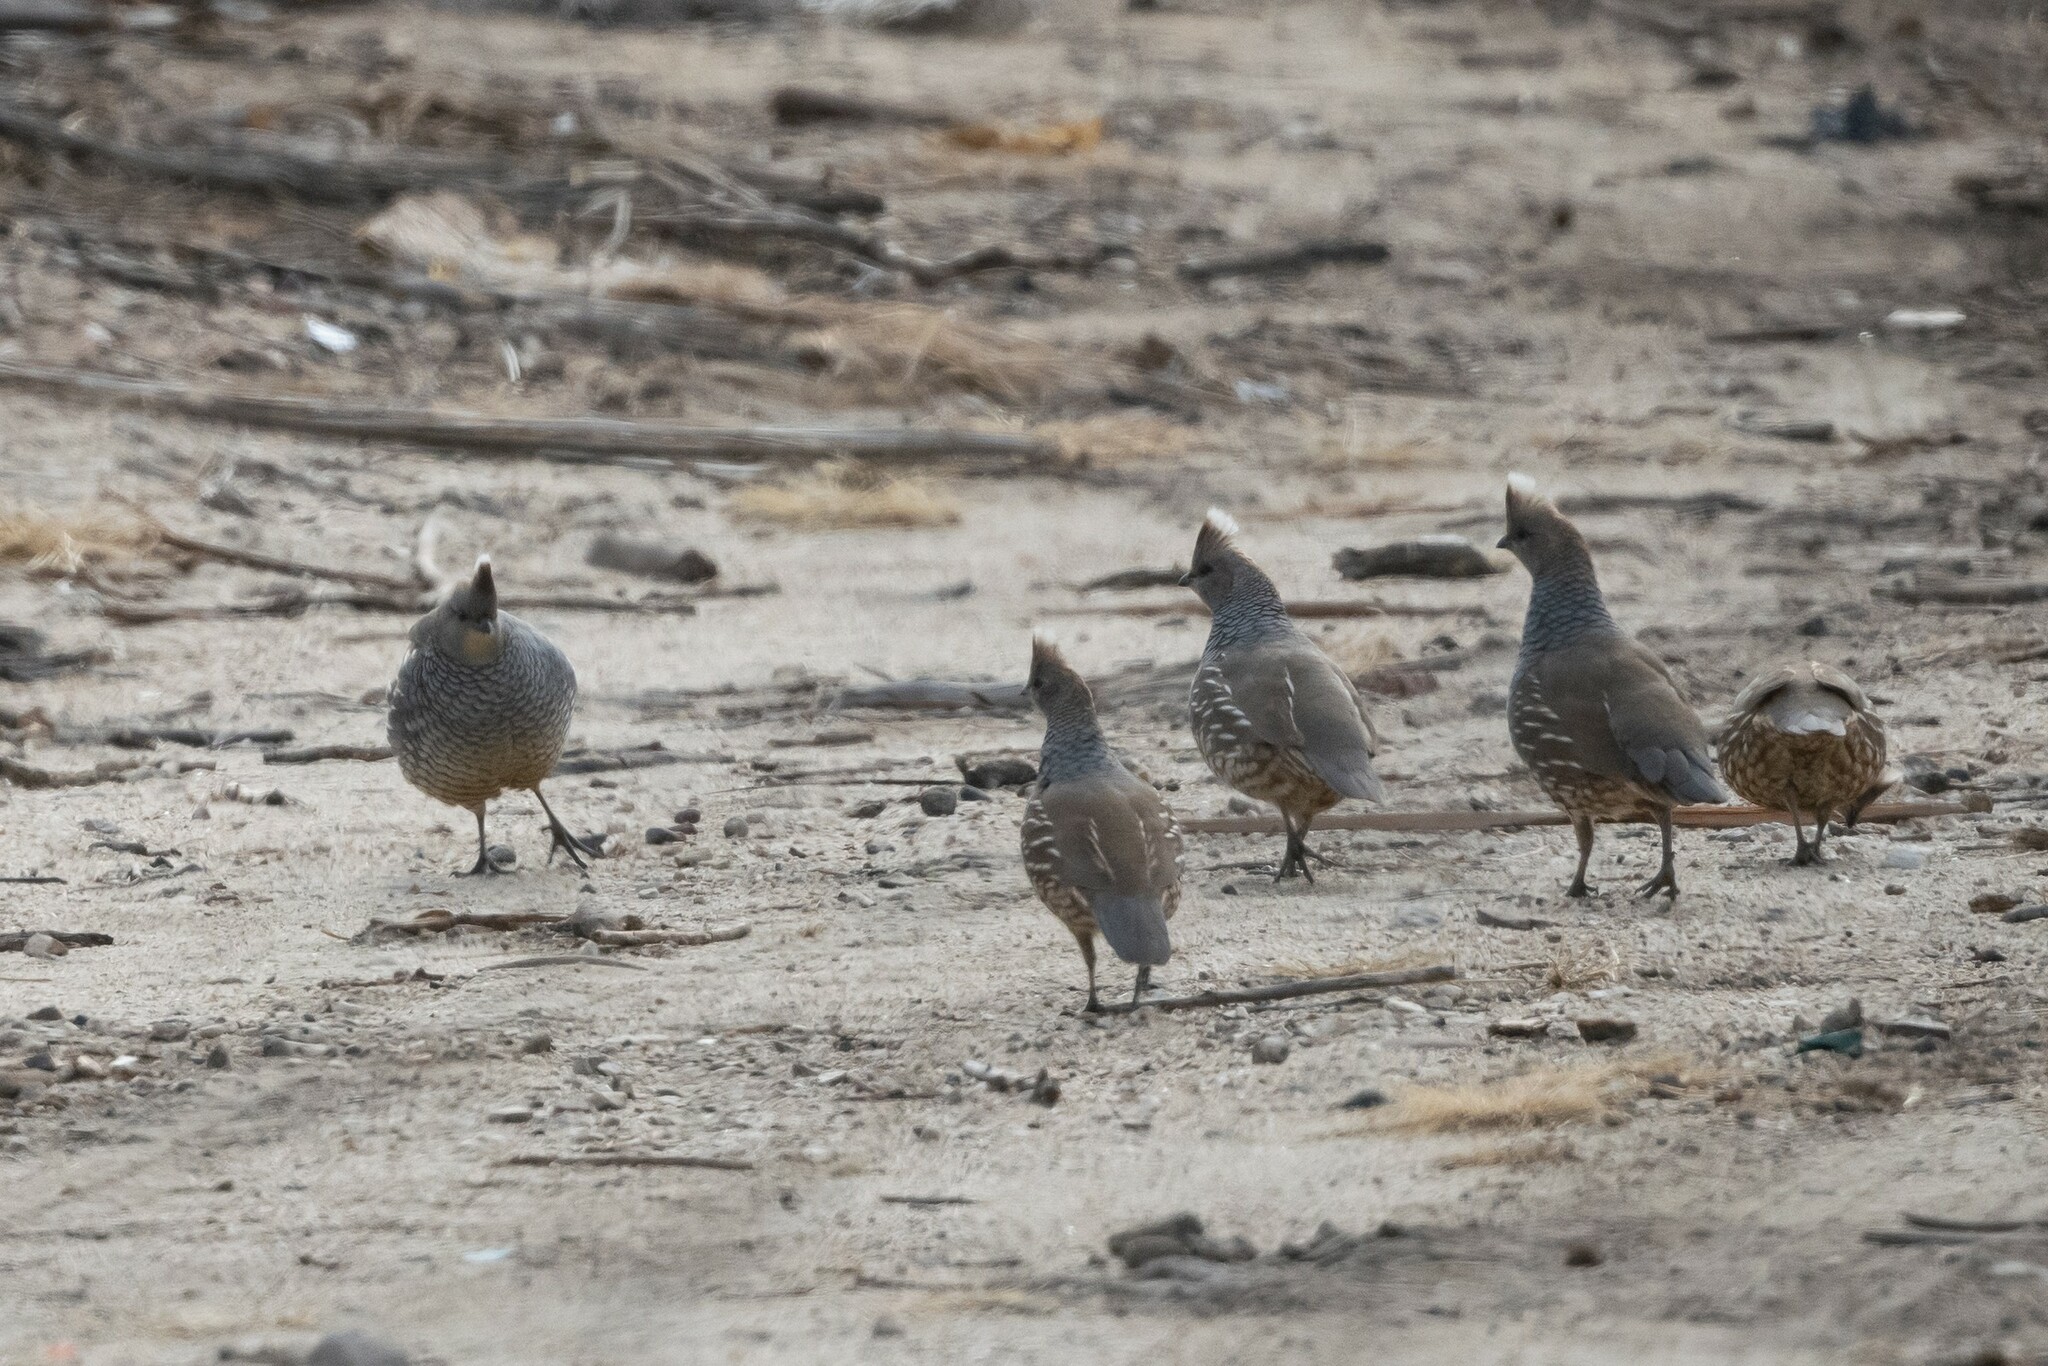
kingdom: Animalia
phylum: Chordata
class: Aves
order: Galliformes
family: Odontophoridae
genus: Callipepla
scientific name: Callipepla squamata
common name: Scaled quail
